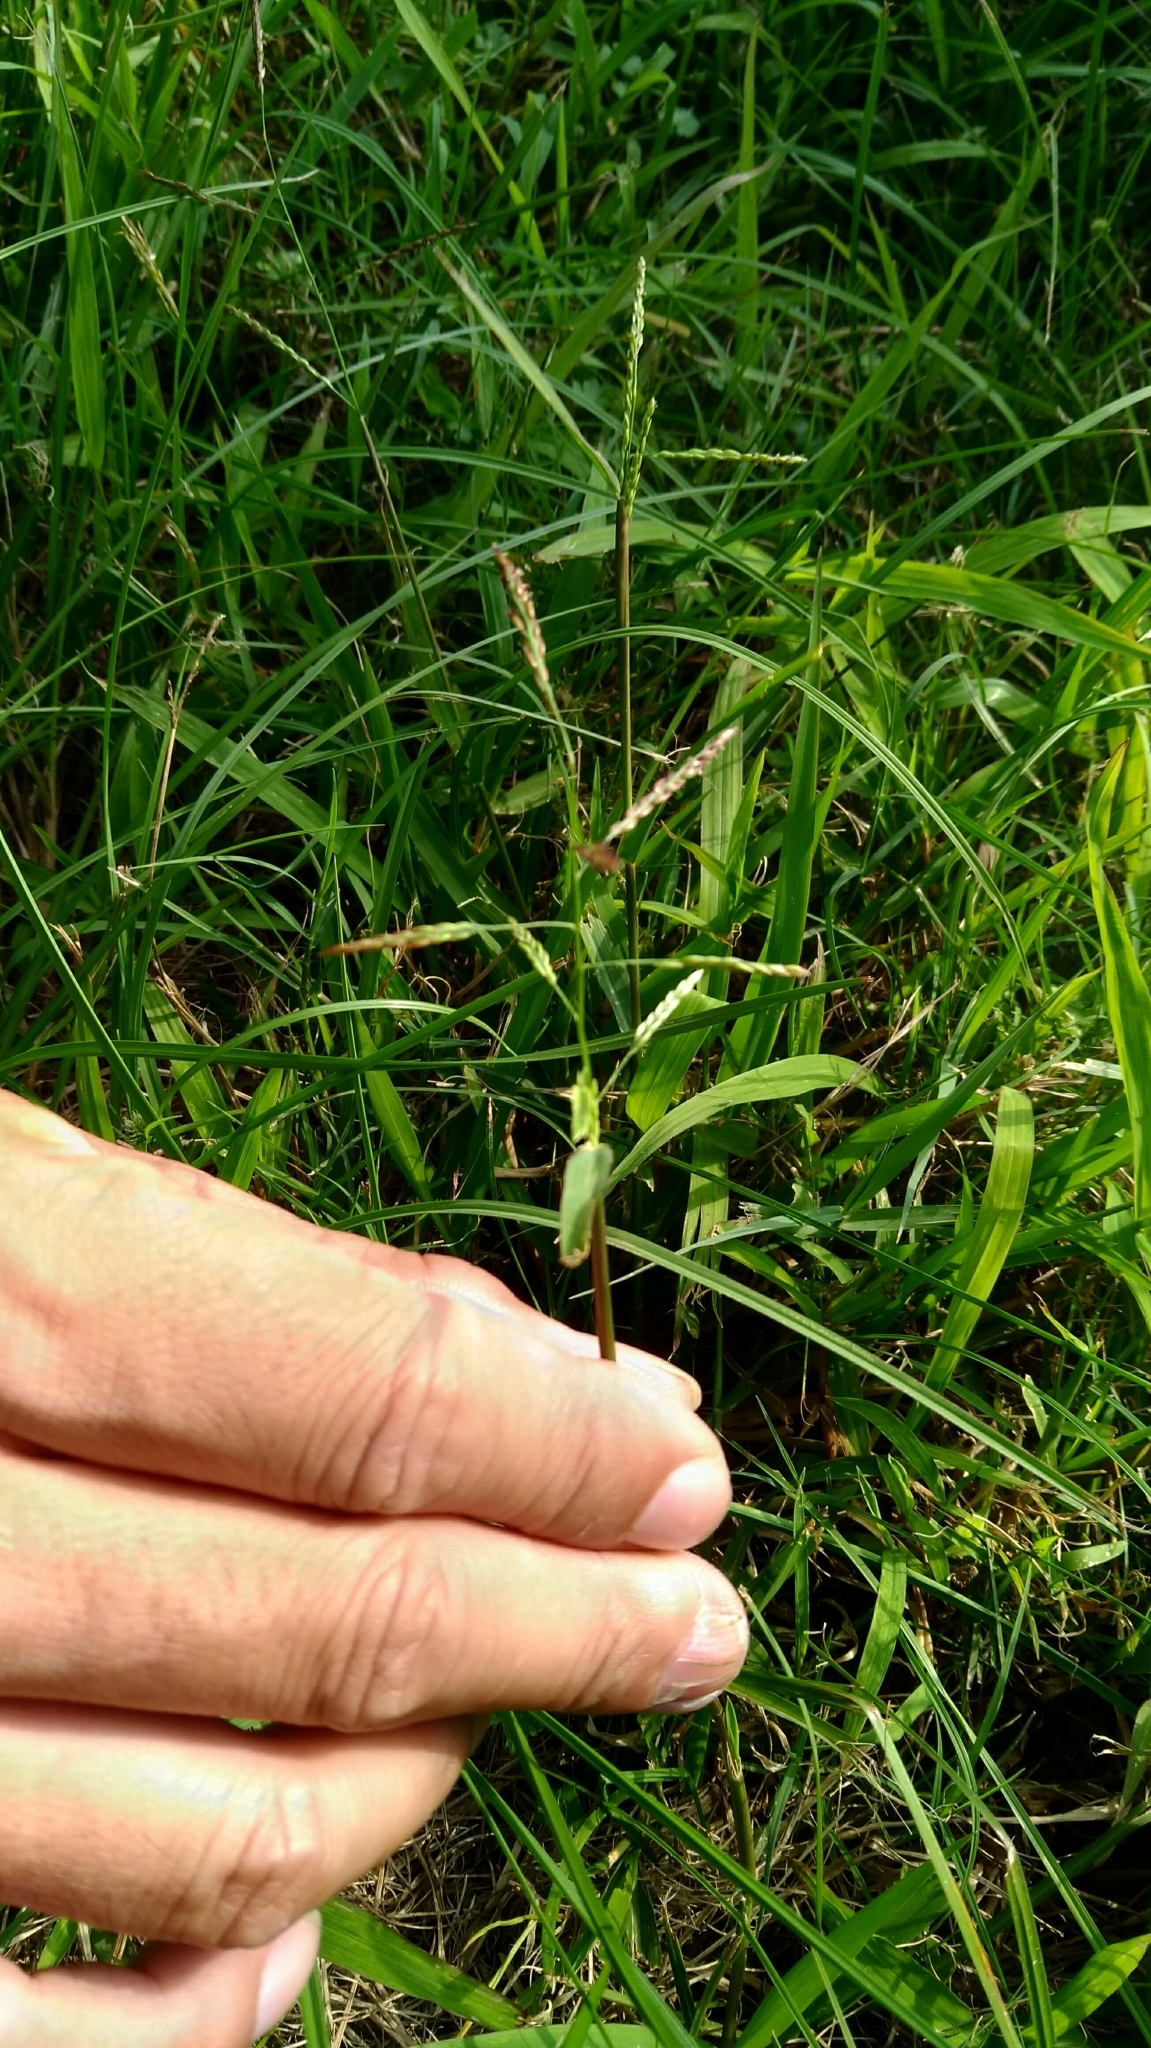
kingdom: Plantae
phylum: Tracheophyta
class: Liliopsida
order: Poales
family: Poaceae
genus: Urochloa
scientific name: Urochloa distachyos
